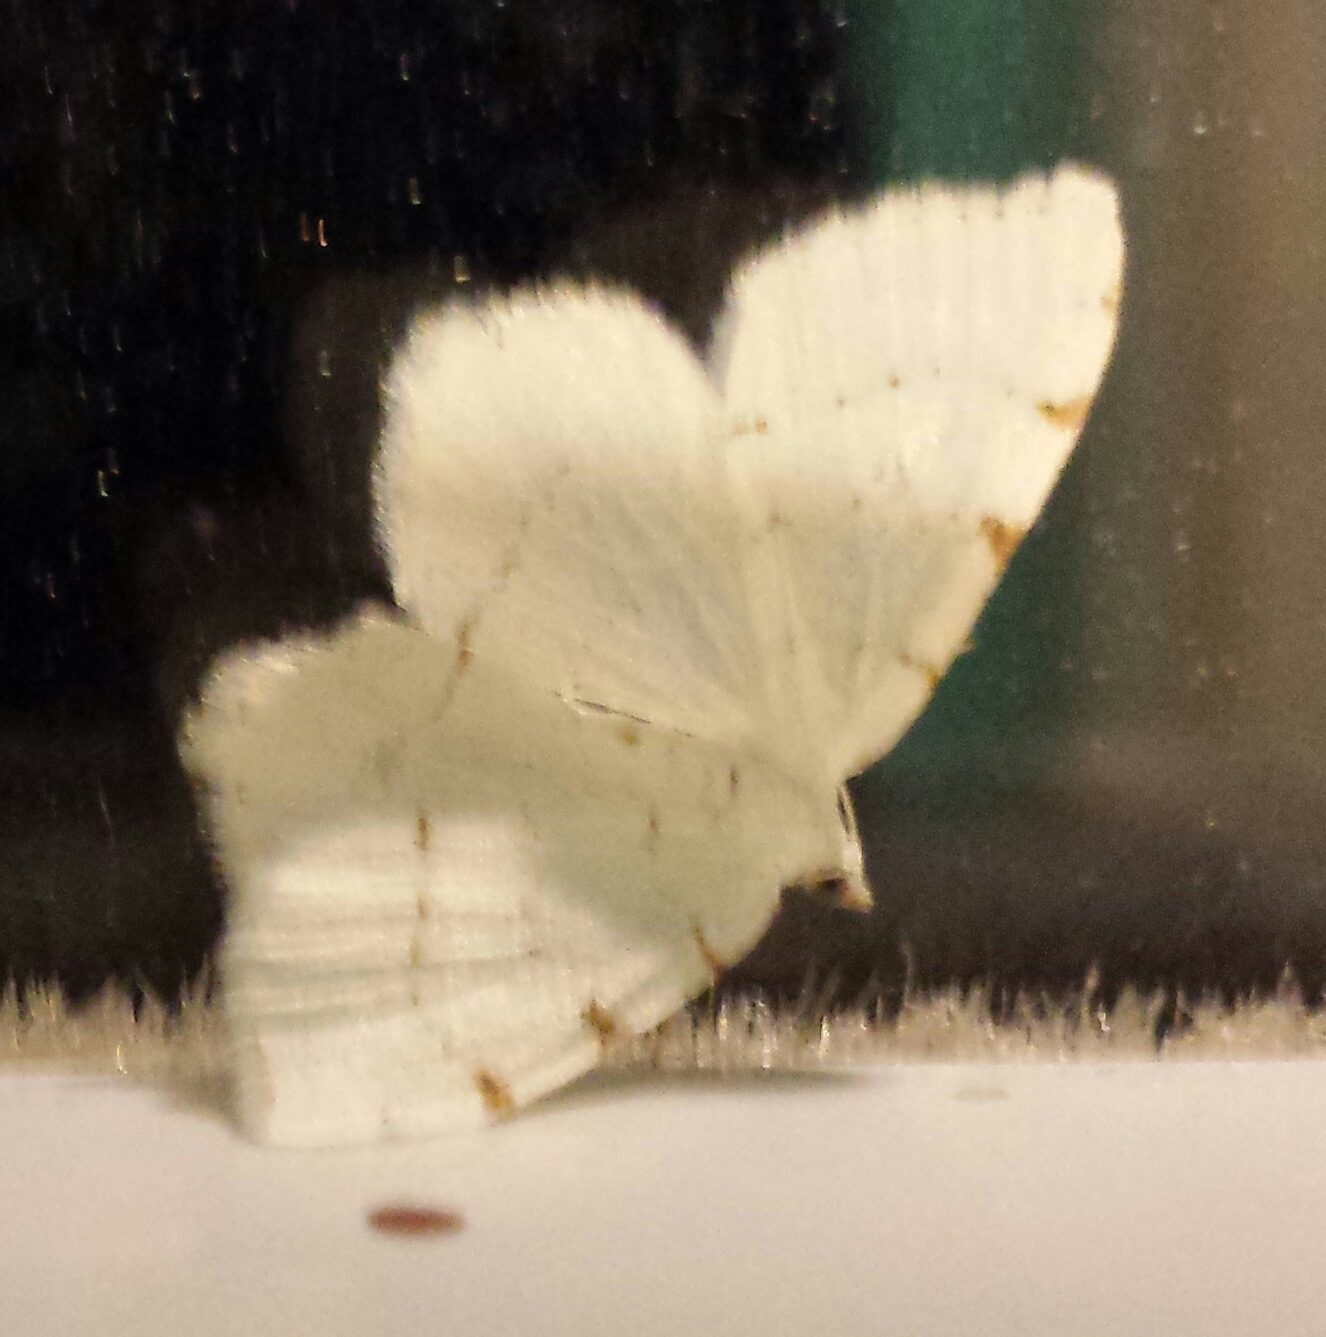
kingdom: Animalia
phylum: Arthropoda
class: Insecta
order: Lepidoptera
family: Geometridae
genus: Macaria
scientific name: Macaria pustularia
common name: Lesser maple spanworm moth
